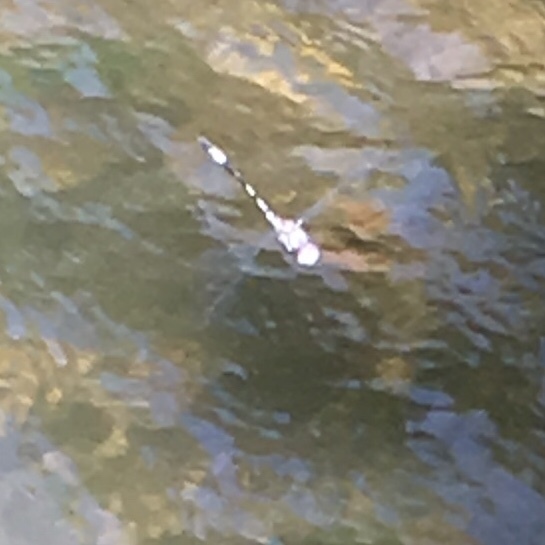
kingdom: Animalia
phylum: Arthropoda
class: Insecta
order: Odonata
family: Libellulidae
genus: Brechmorhoga
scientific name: Brechmorhoga mendax
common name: Pale-faced clubskimmer
